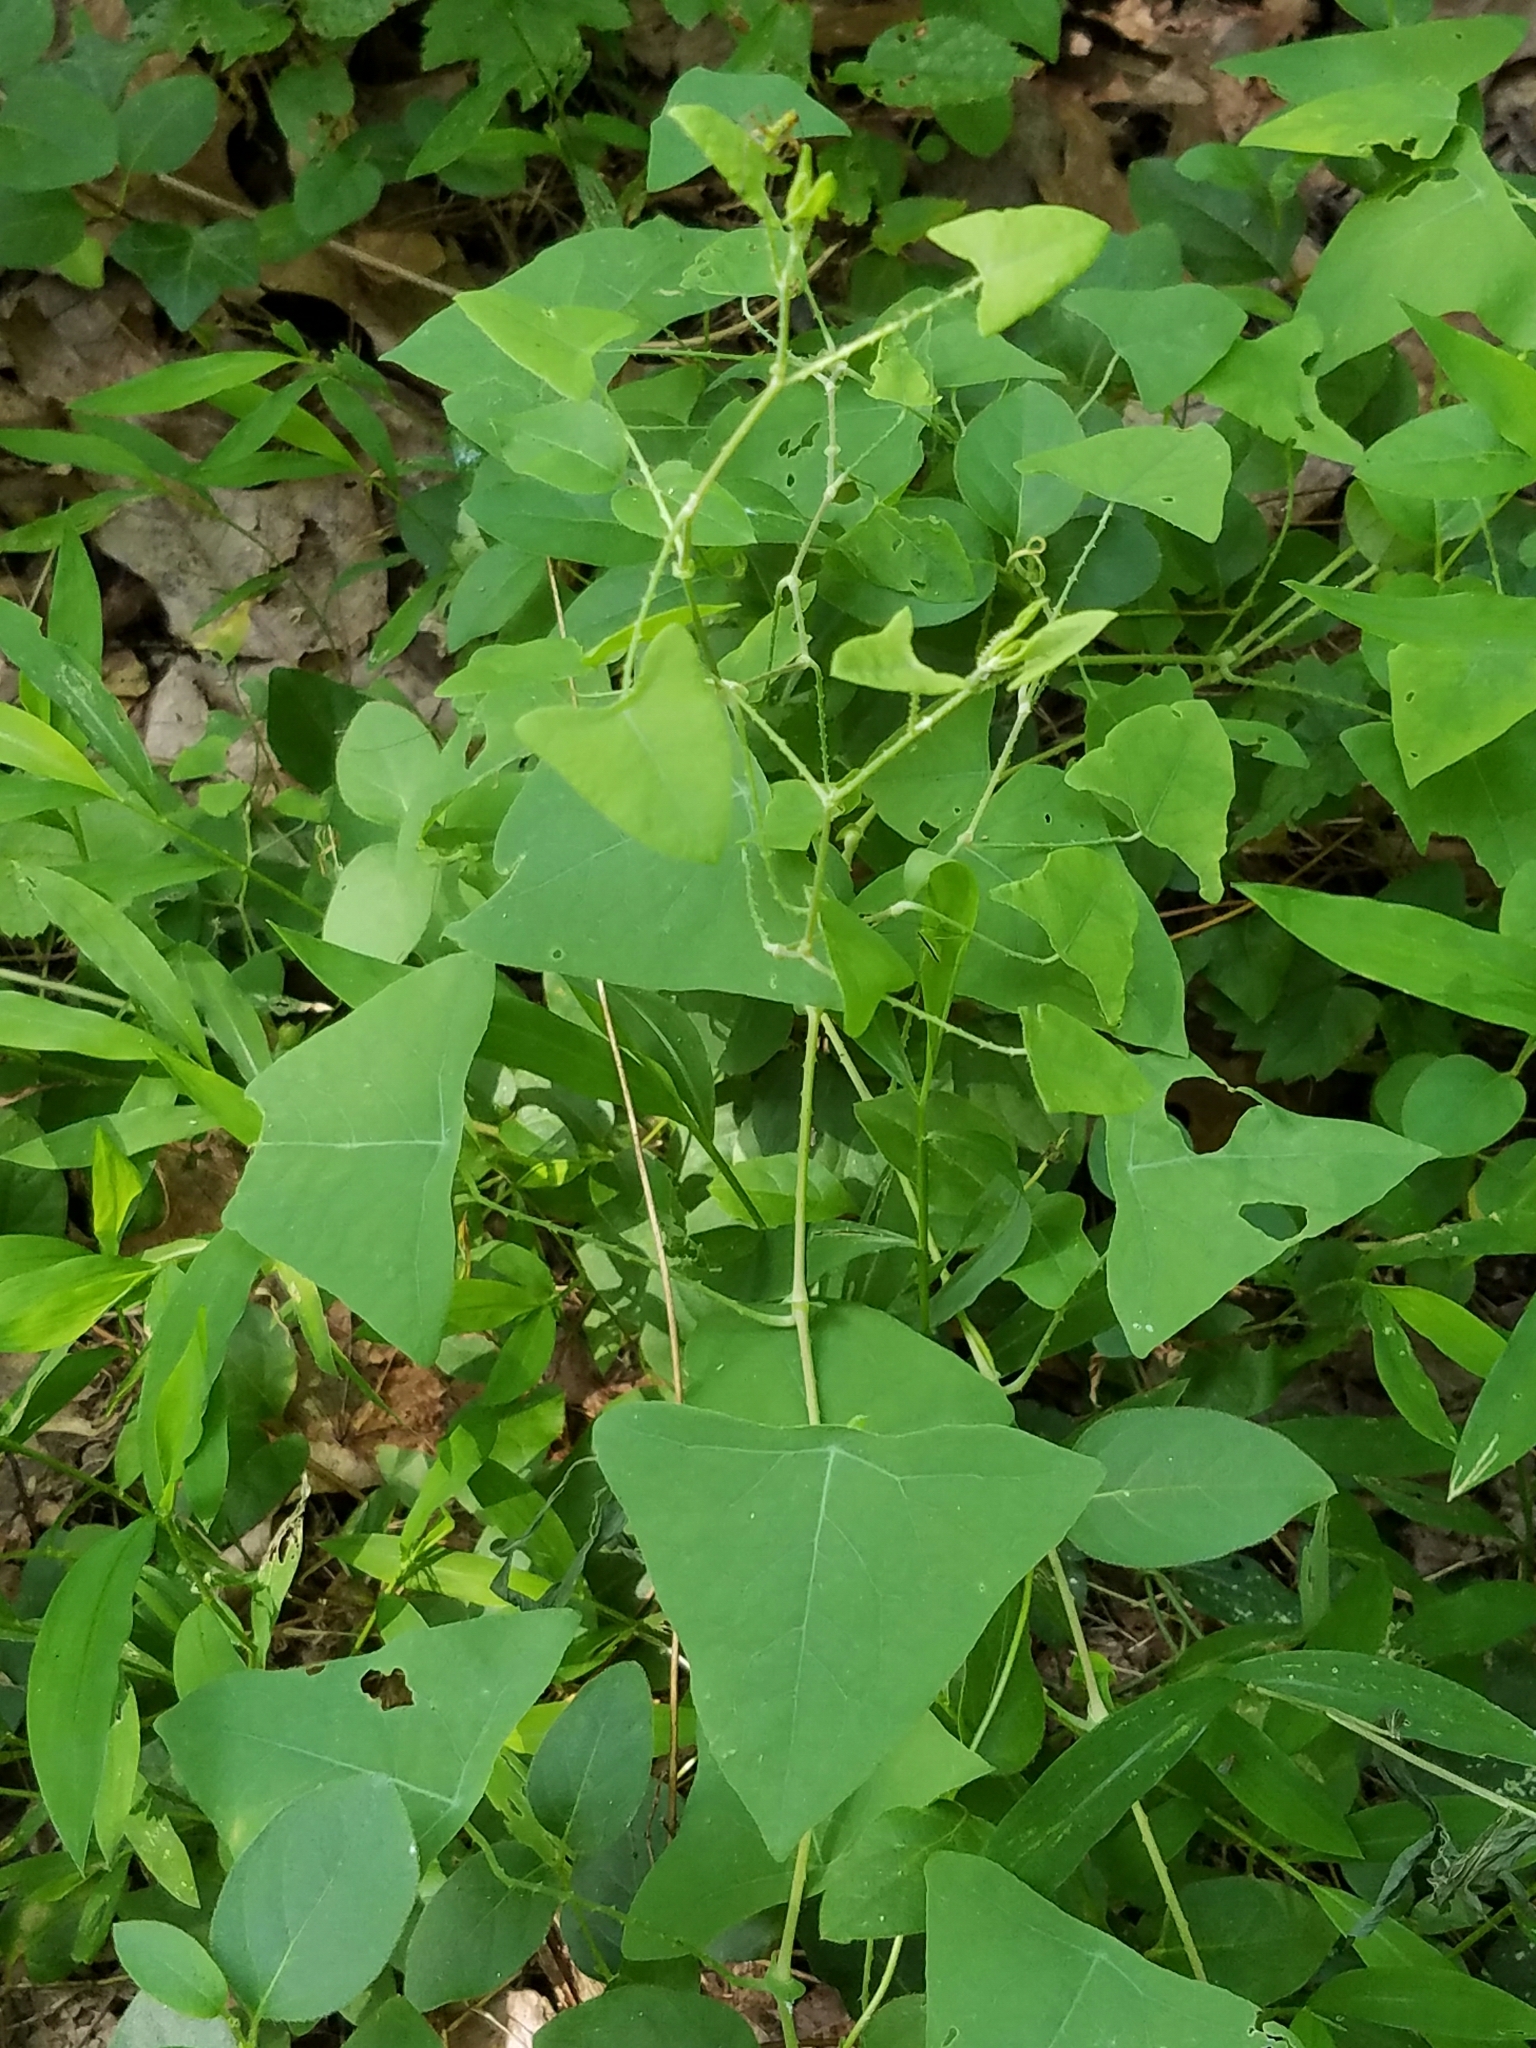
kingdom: Plantae
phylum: Tracheophyta
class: Magnoliopsida
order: Caryophyllales
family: Polygonaceae
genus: Persicaria
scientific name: Persicaria perfoliata
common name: Asiatic tearthumb
